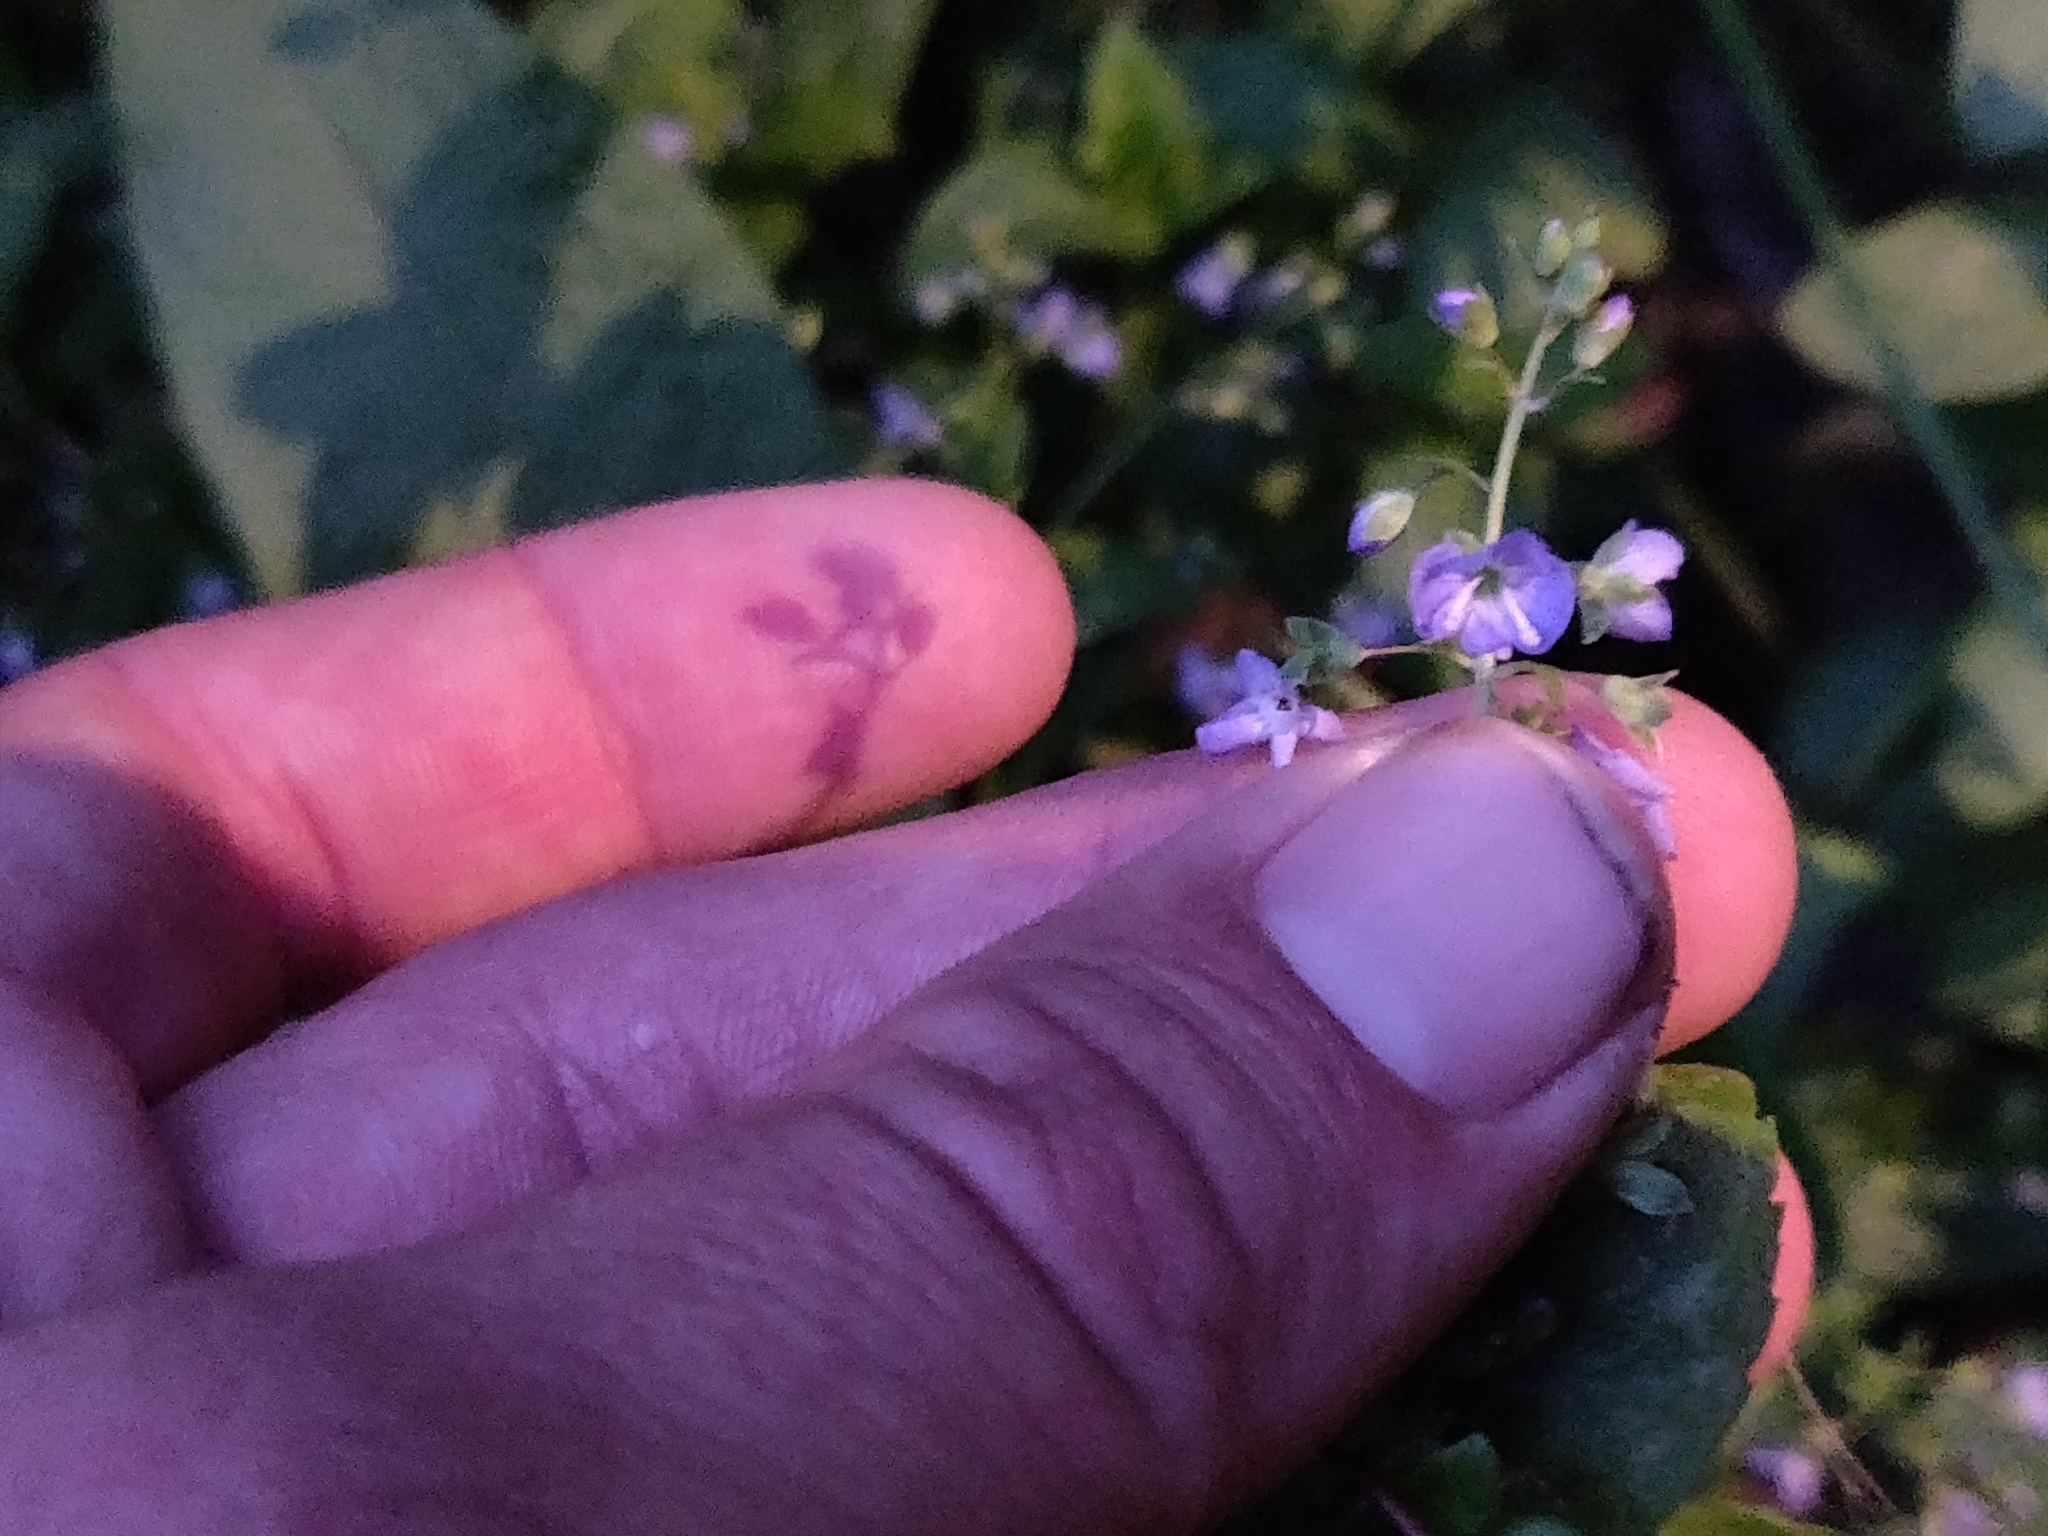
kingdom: Plantae
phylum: Tracheophyta
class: Magnoliopsida
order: Lamiales
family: Plantaginaceae
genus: Veronica
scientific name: Veronica americana
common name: American brooklime
